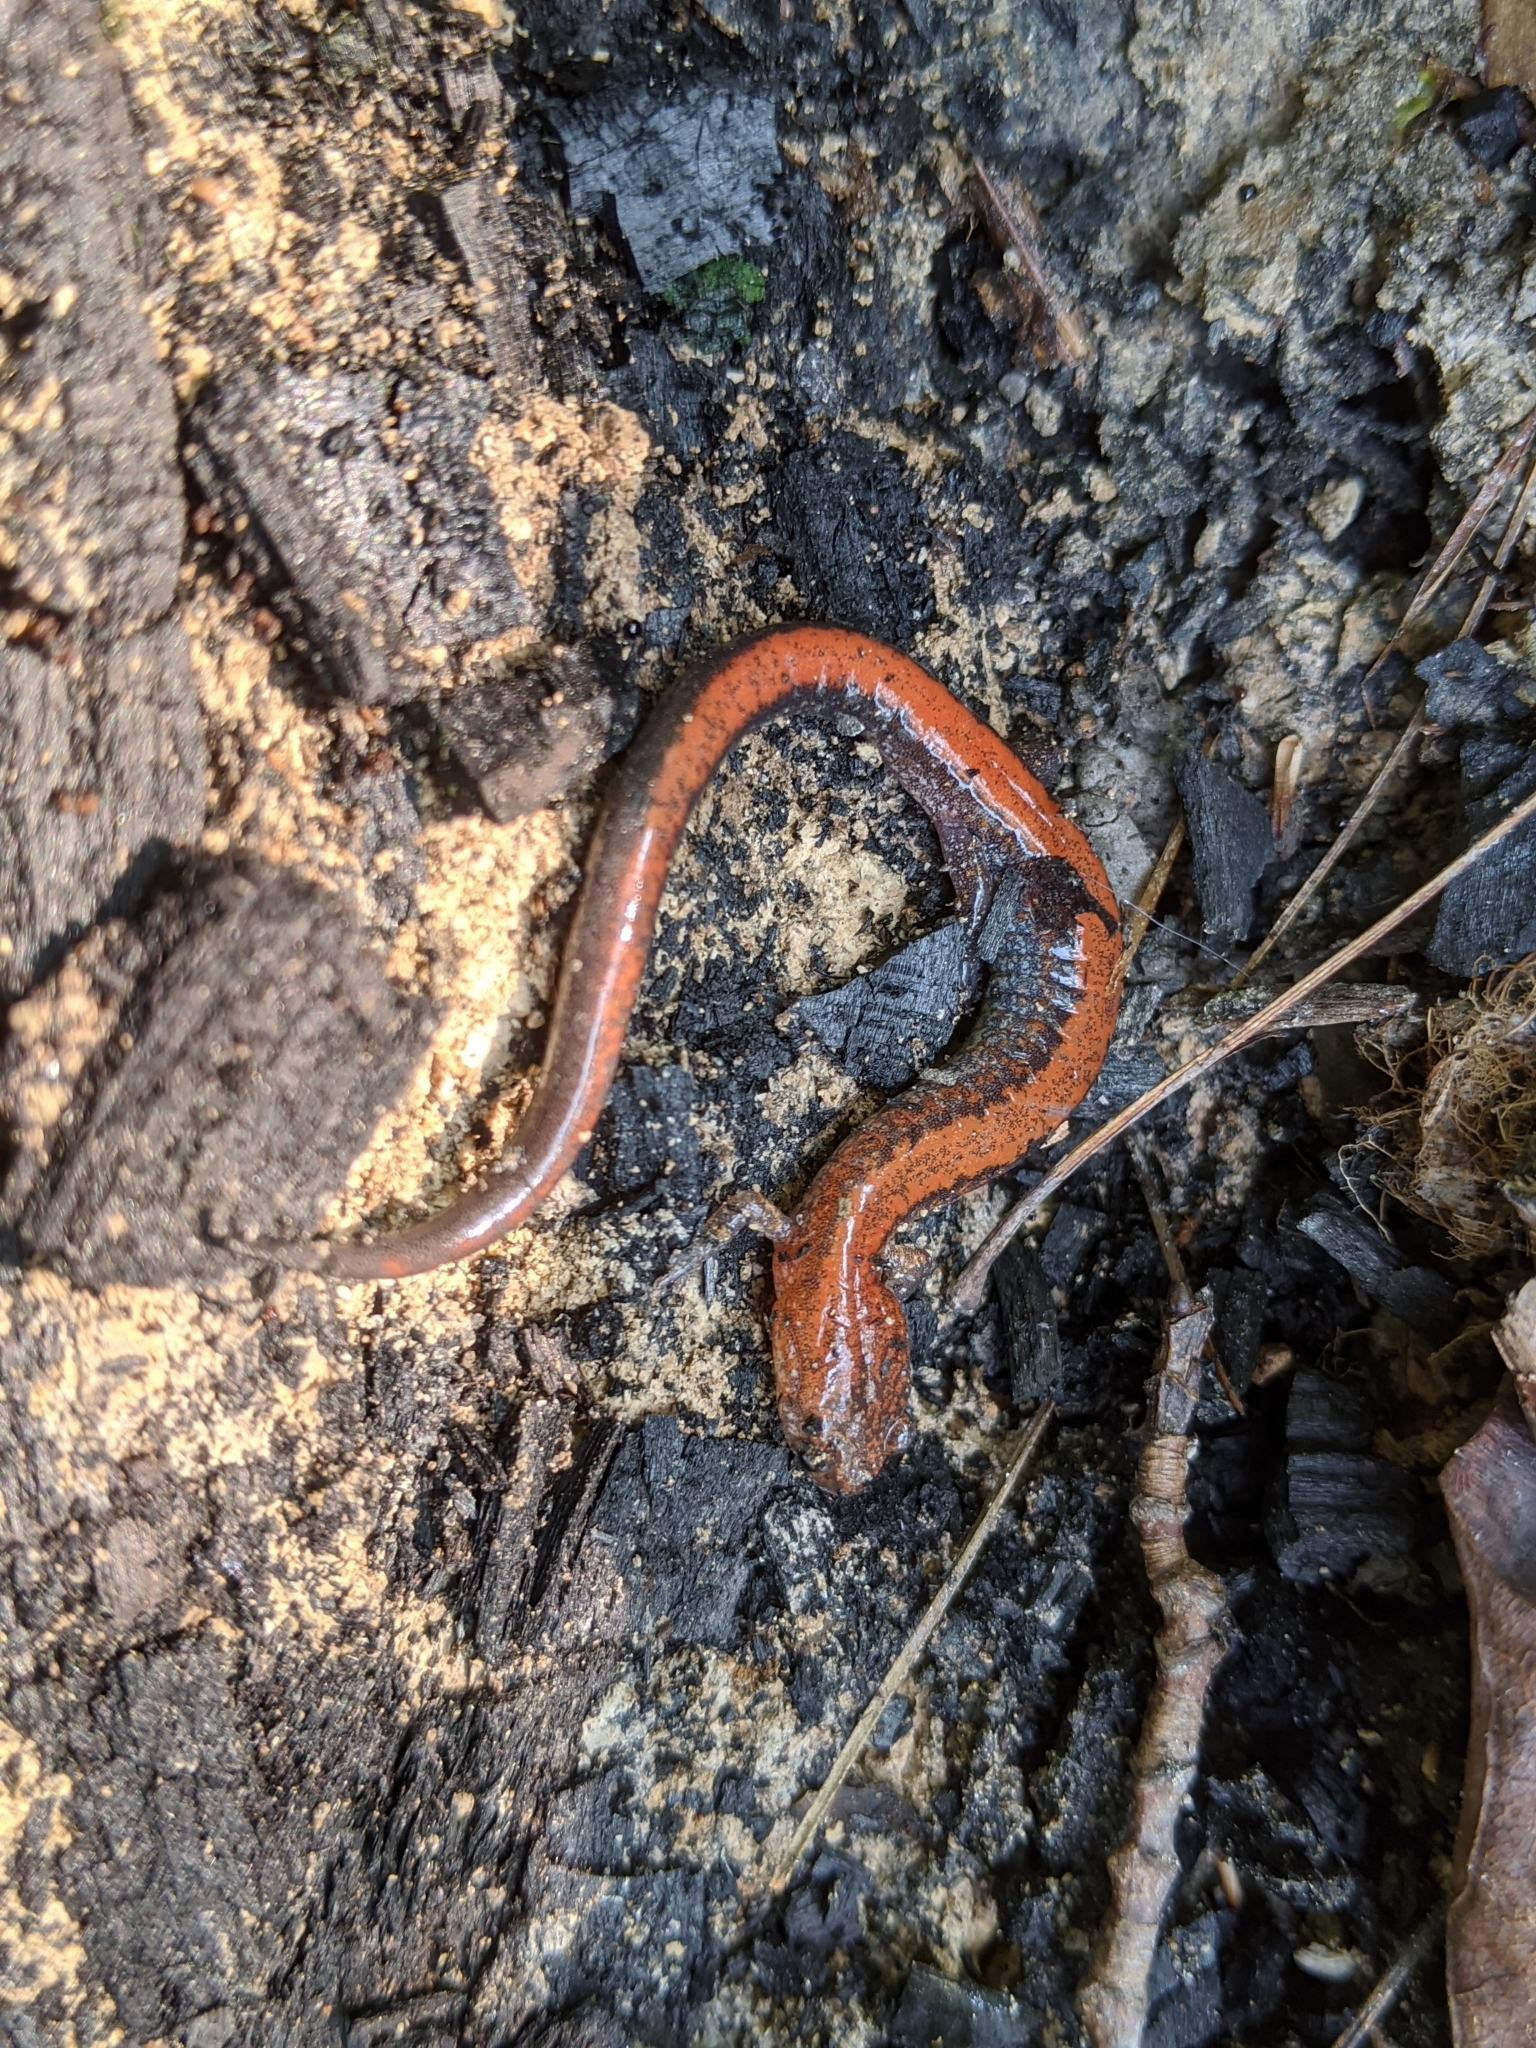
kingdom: Animalia
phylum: Chordata
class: Amphibia
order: Caudata
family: Plethodontidae
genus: Plethodon
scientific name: Plethodon cinereus
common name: Redback salamander
